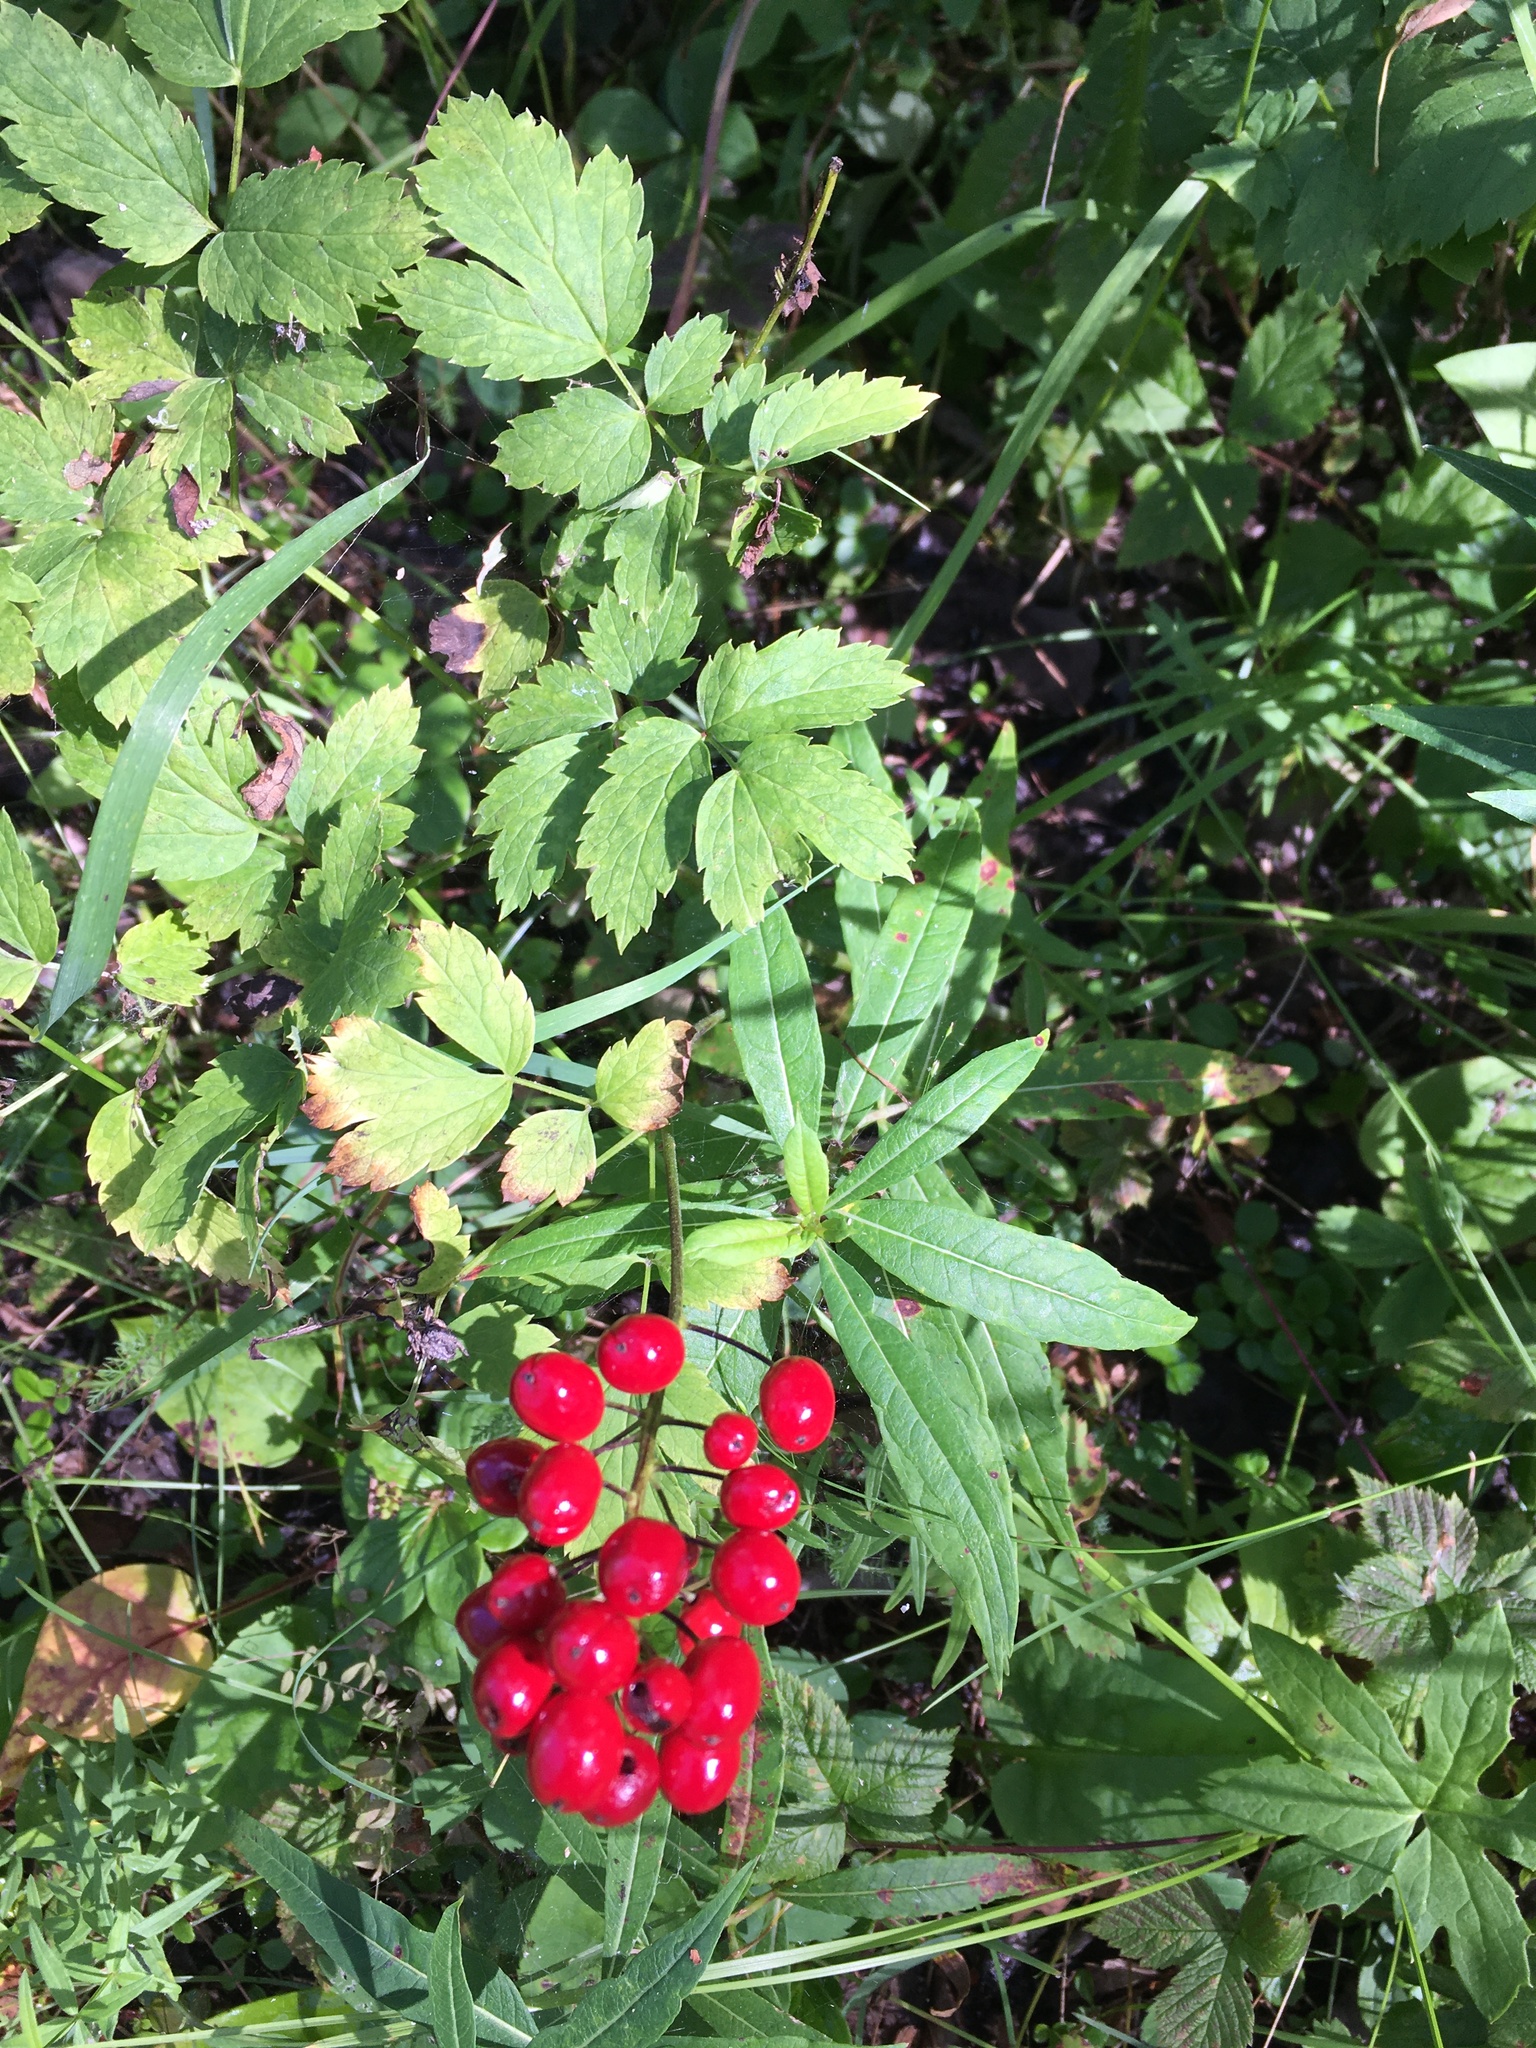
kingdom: Plantae
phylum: Tracheophyta
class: Magnoliopsida
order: Ranunculales
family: Ranunculaceae
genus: Actaea
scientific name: Actaea rubra
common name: Red baneberry
